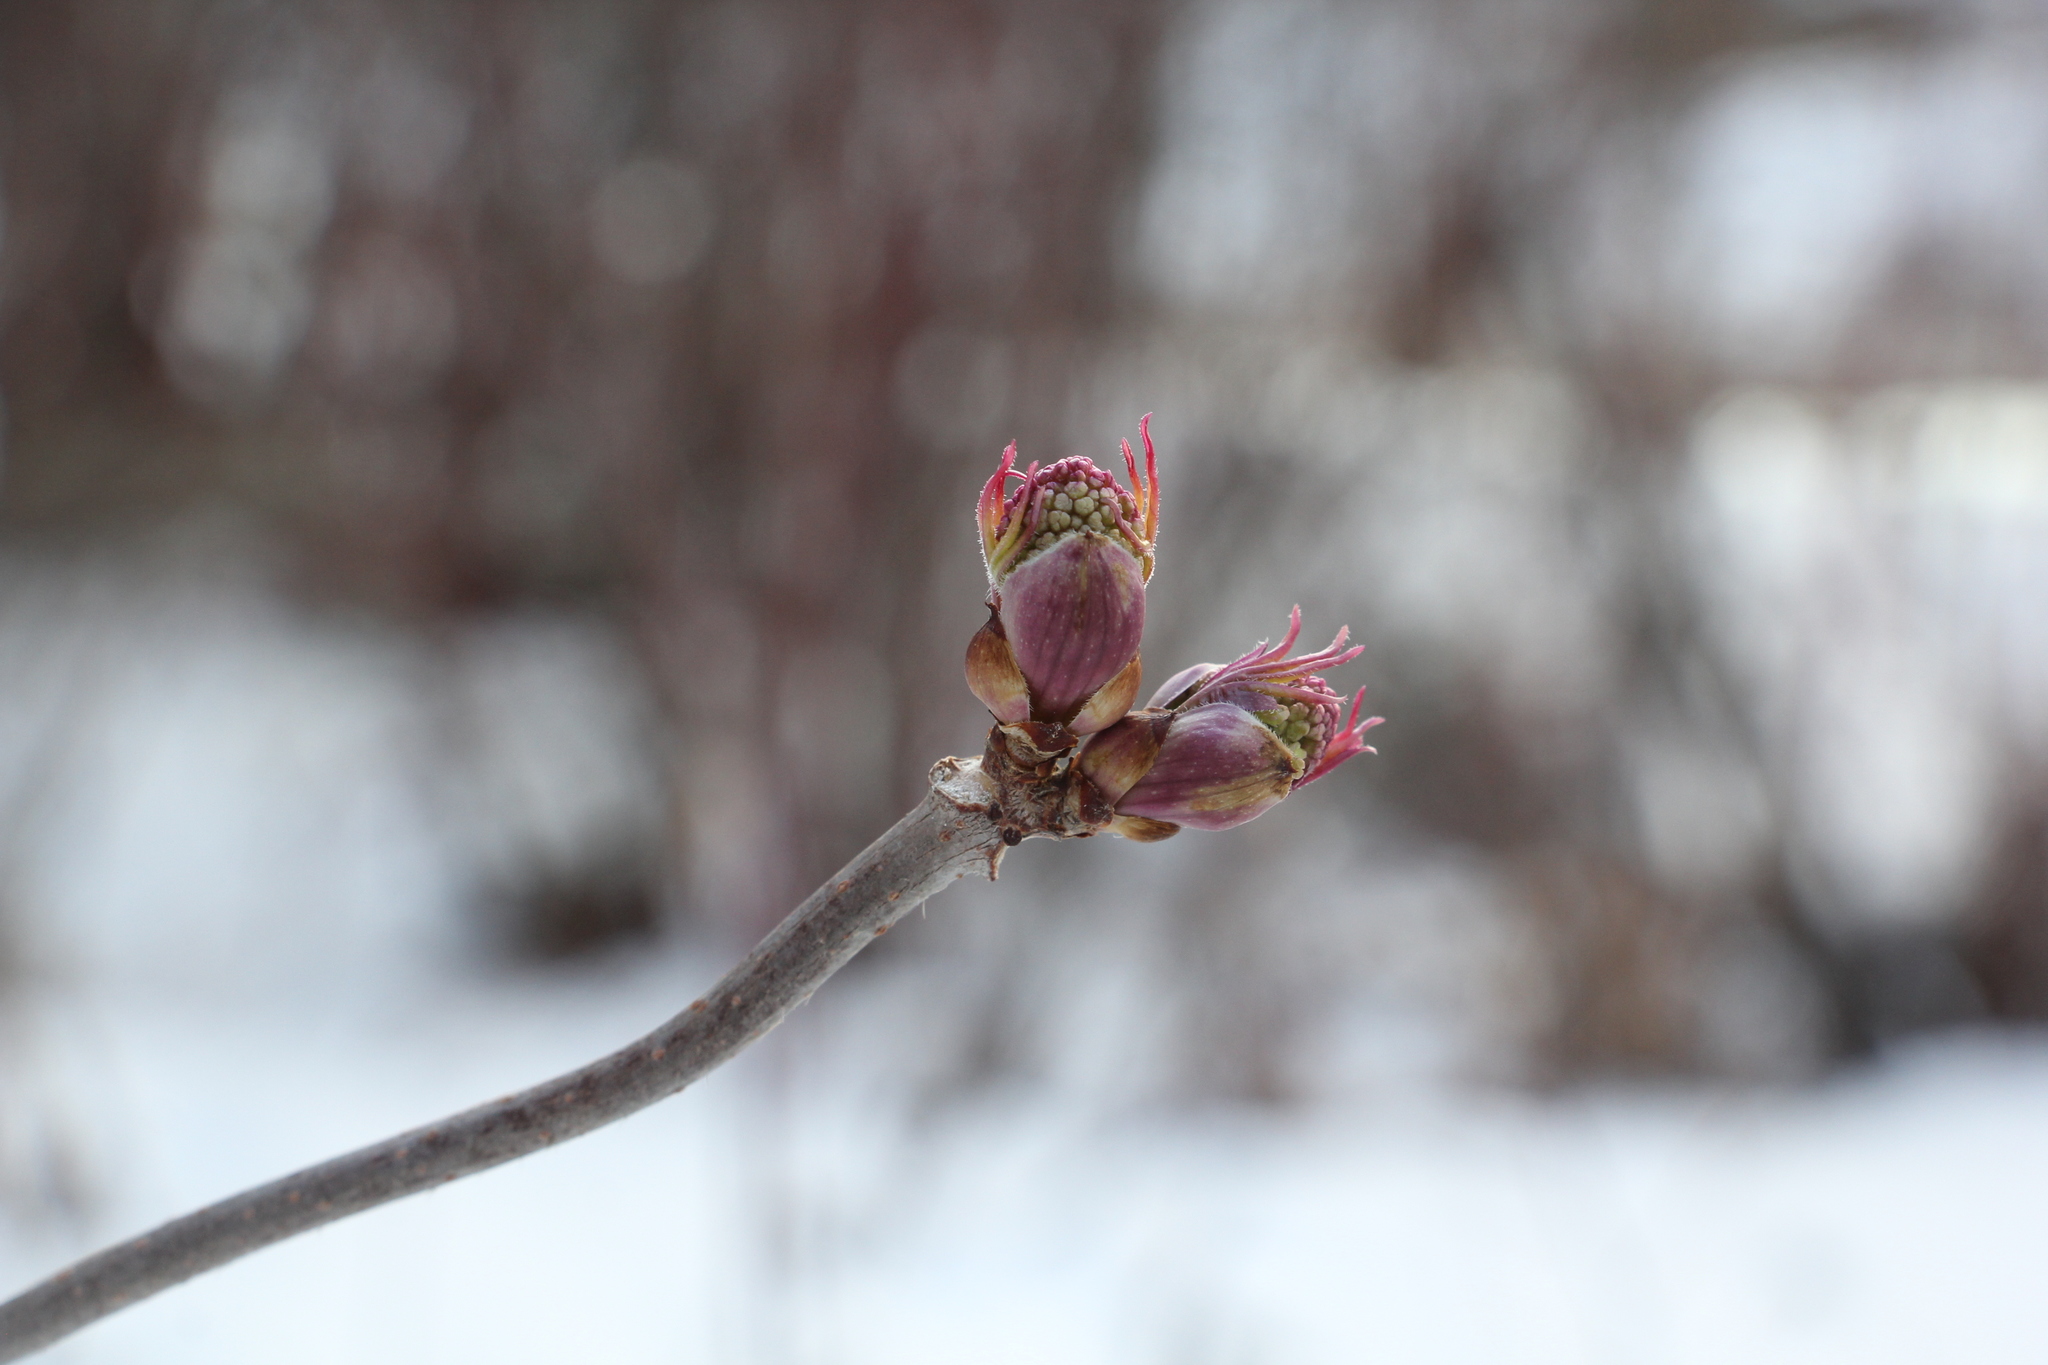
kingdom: Plantae
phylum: Tracheophyta
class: Magnoliopsida
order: Dipsacales
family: Viburnaceae
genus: Sambucus
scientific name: Sambucus sibirica
